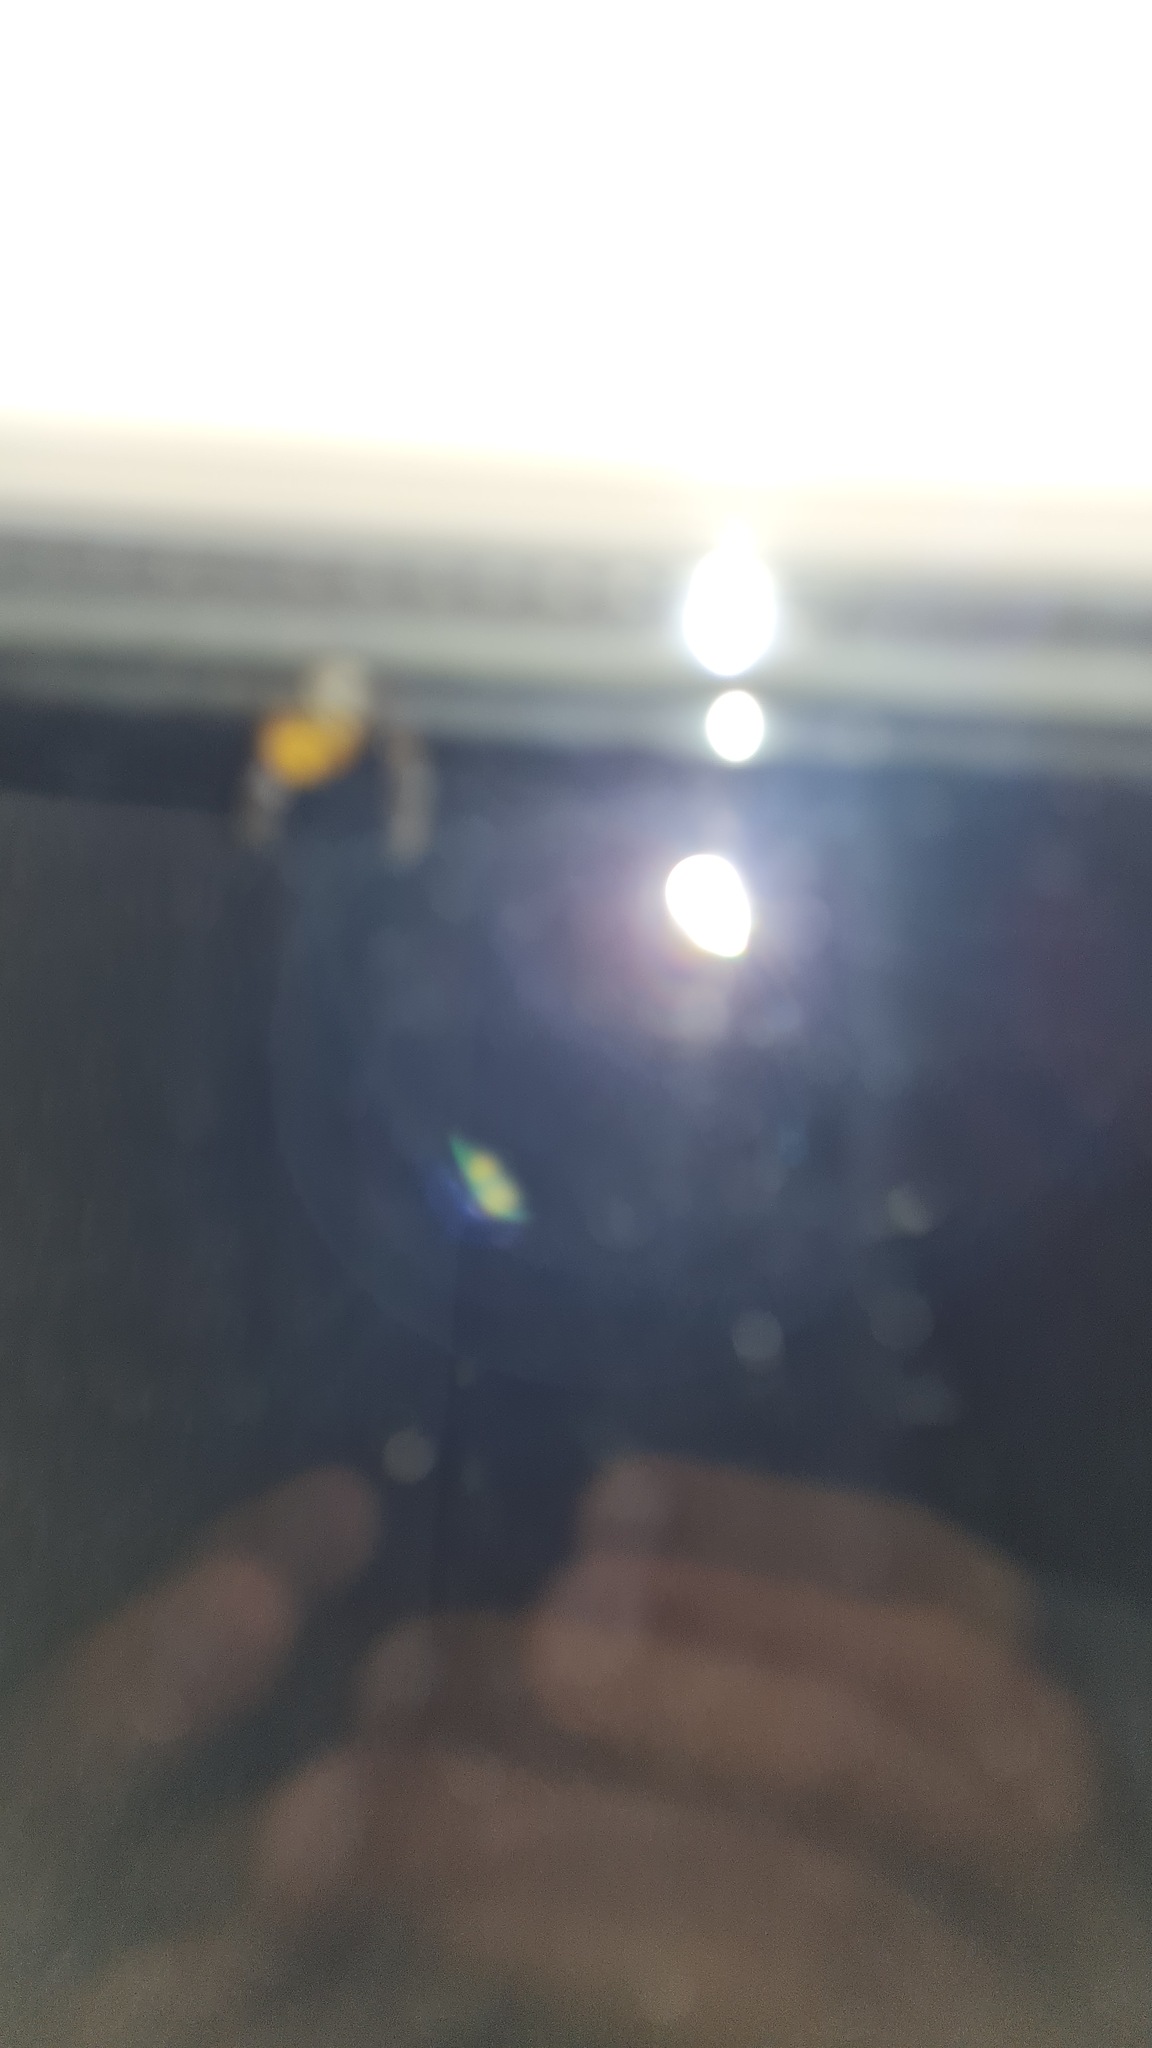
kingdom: Animalia
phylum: Arthropoda
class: Insecta
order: Hymenoptera
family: Vespidae
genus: Vespa
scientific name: Vespa crabro
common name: Hornet
